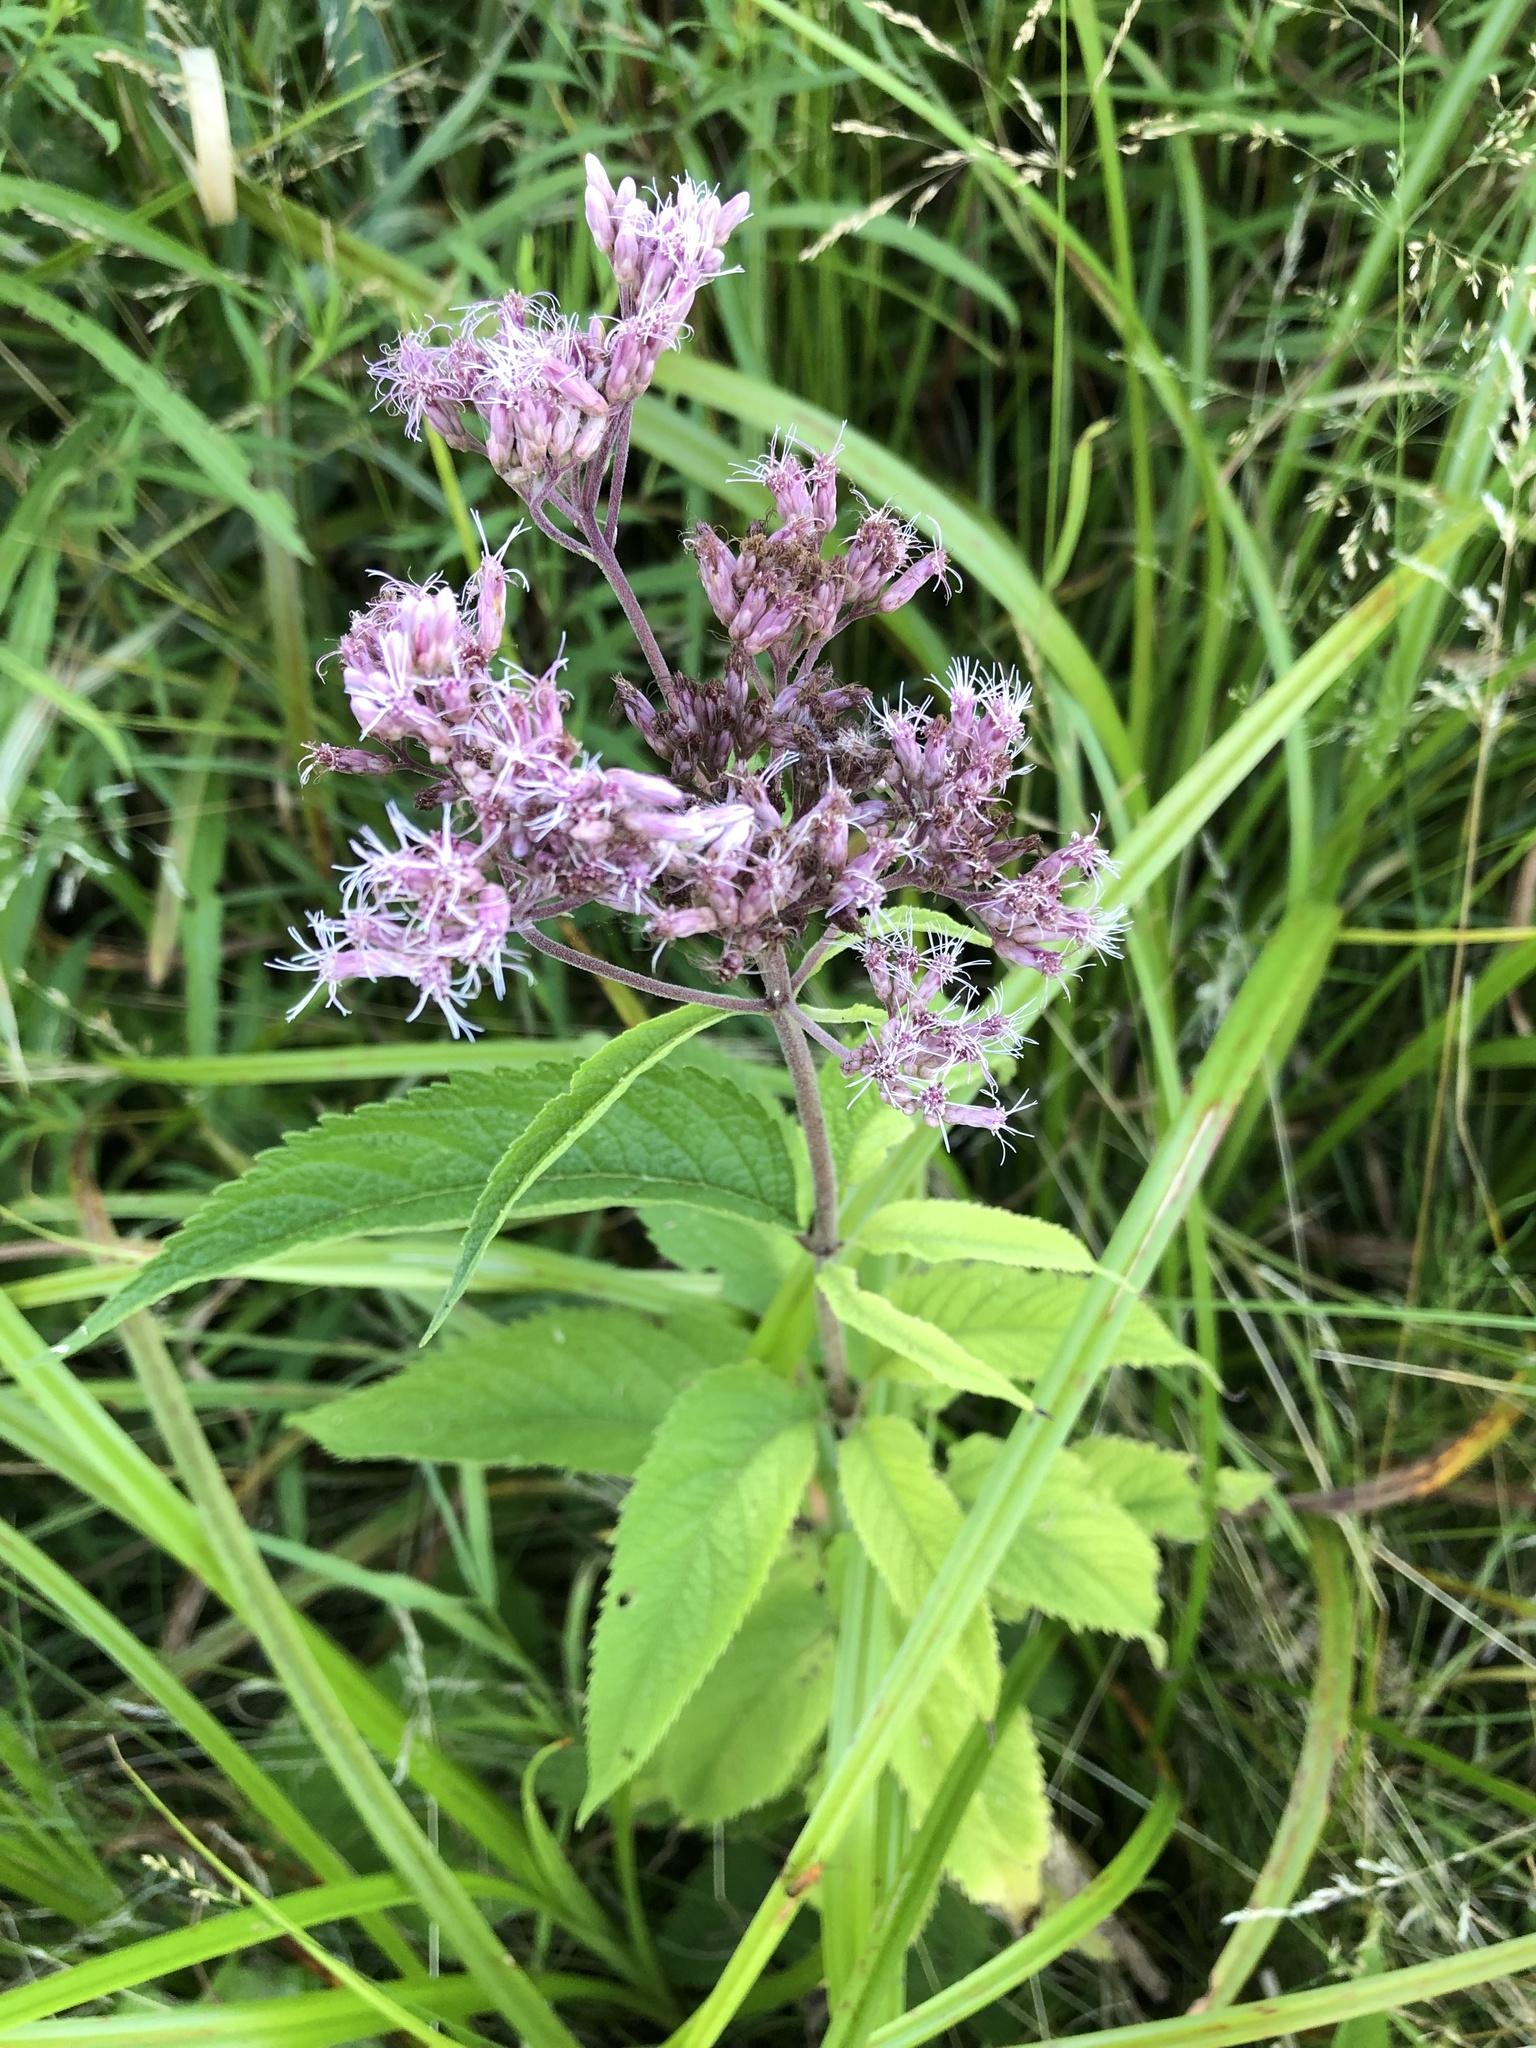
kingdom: Plantae
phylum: Tracheophyta
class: Magnoliopsida
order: Asterales
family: Asteraceae
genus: Eutrochium
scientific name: Eutrochium maculatum
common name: Spotted joe pye weed
